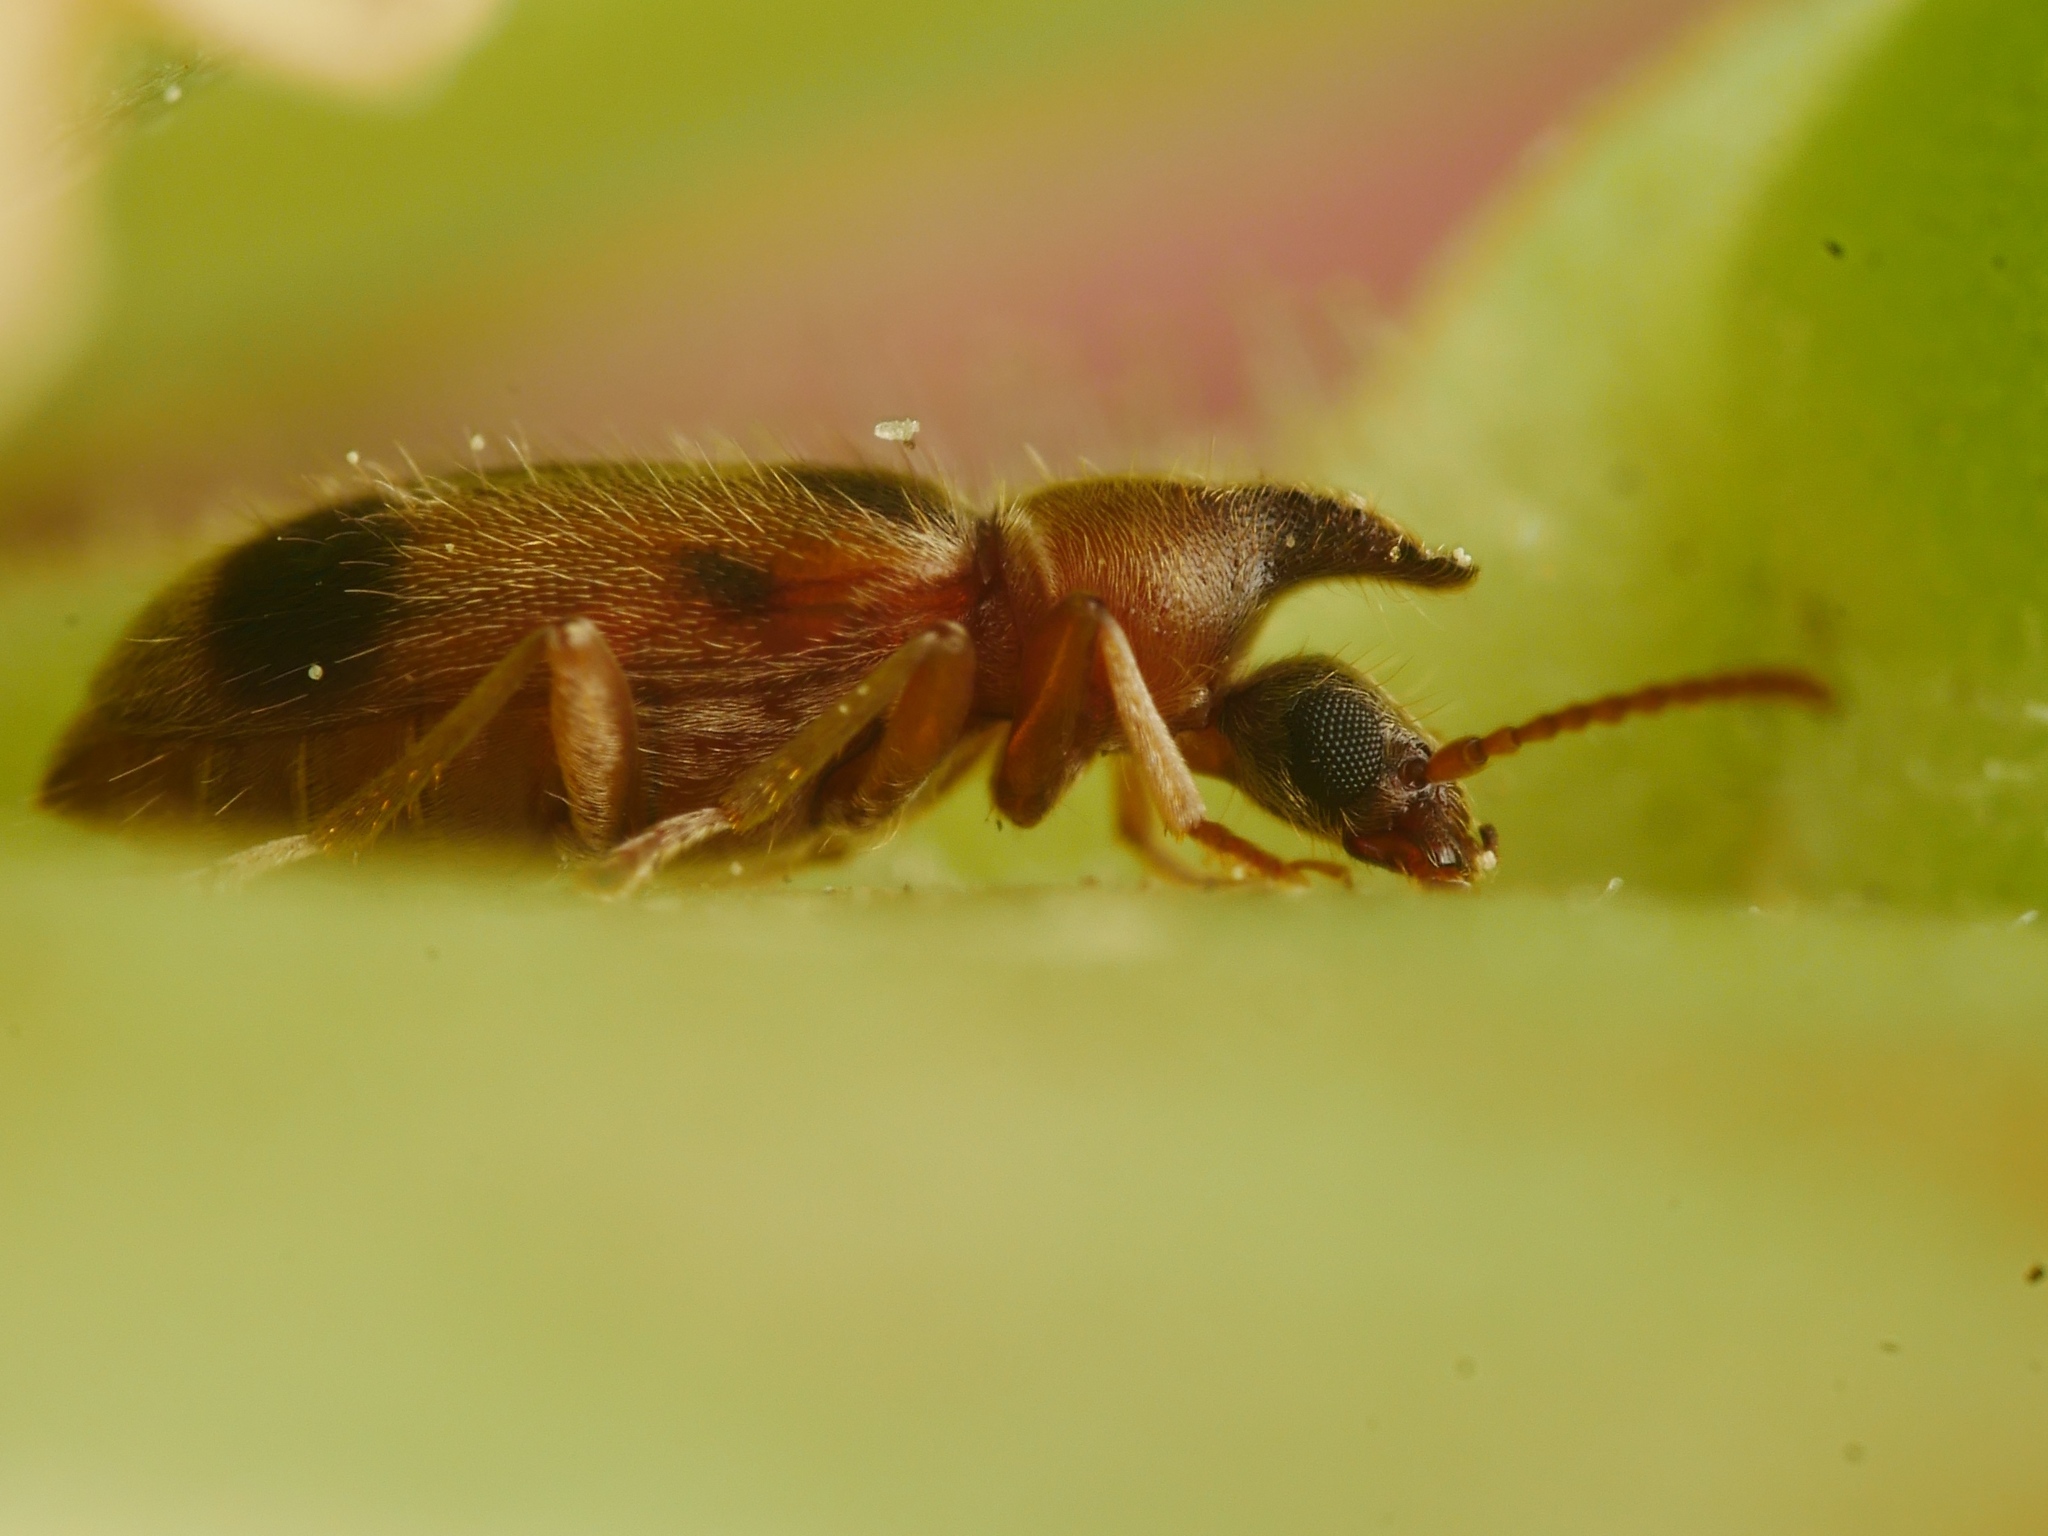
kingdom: Animalia
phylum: Arthropoda
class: Insecta
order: Coleoptera
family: Anthicidae
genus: Notoxus
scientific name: Notoxus monoceros
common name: Monoceros beetle
